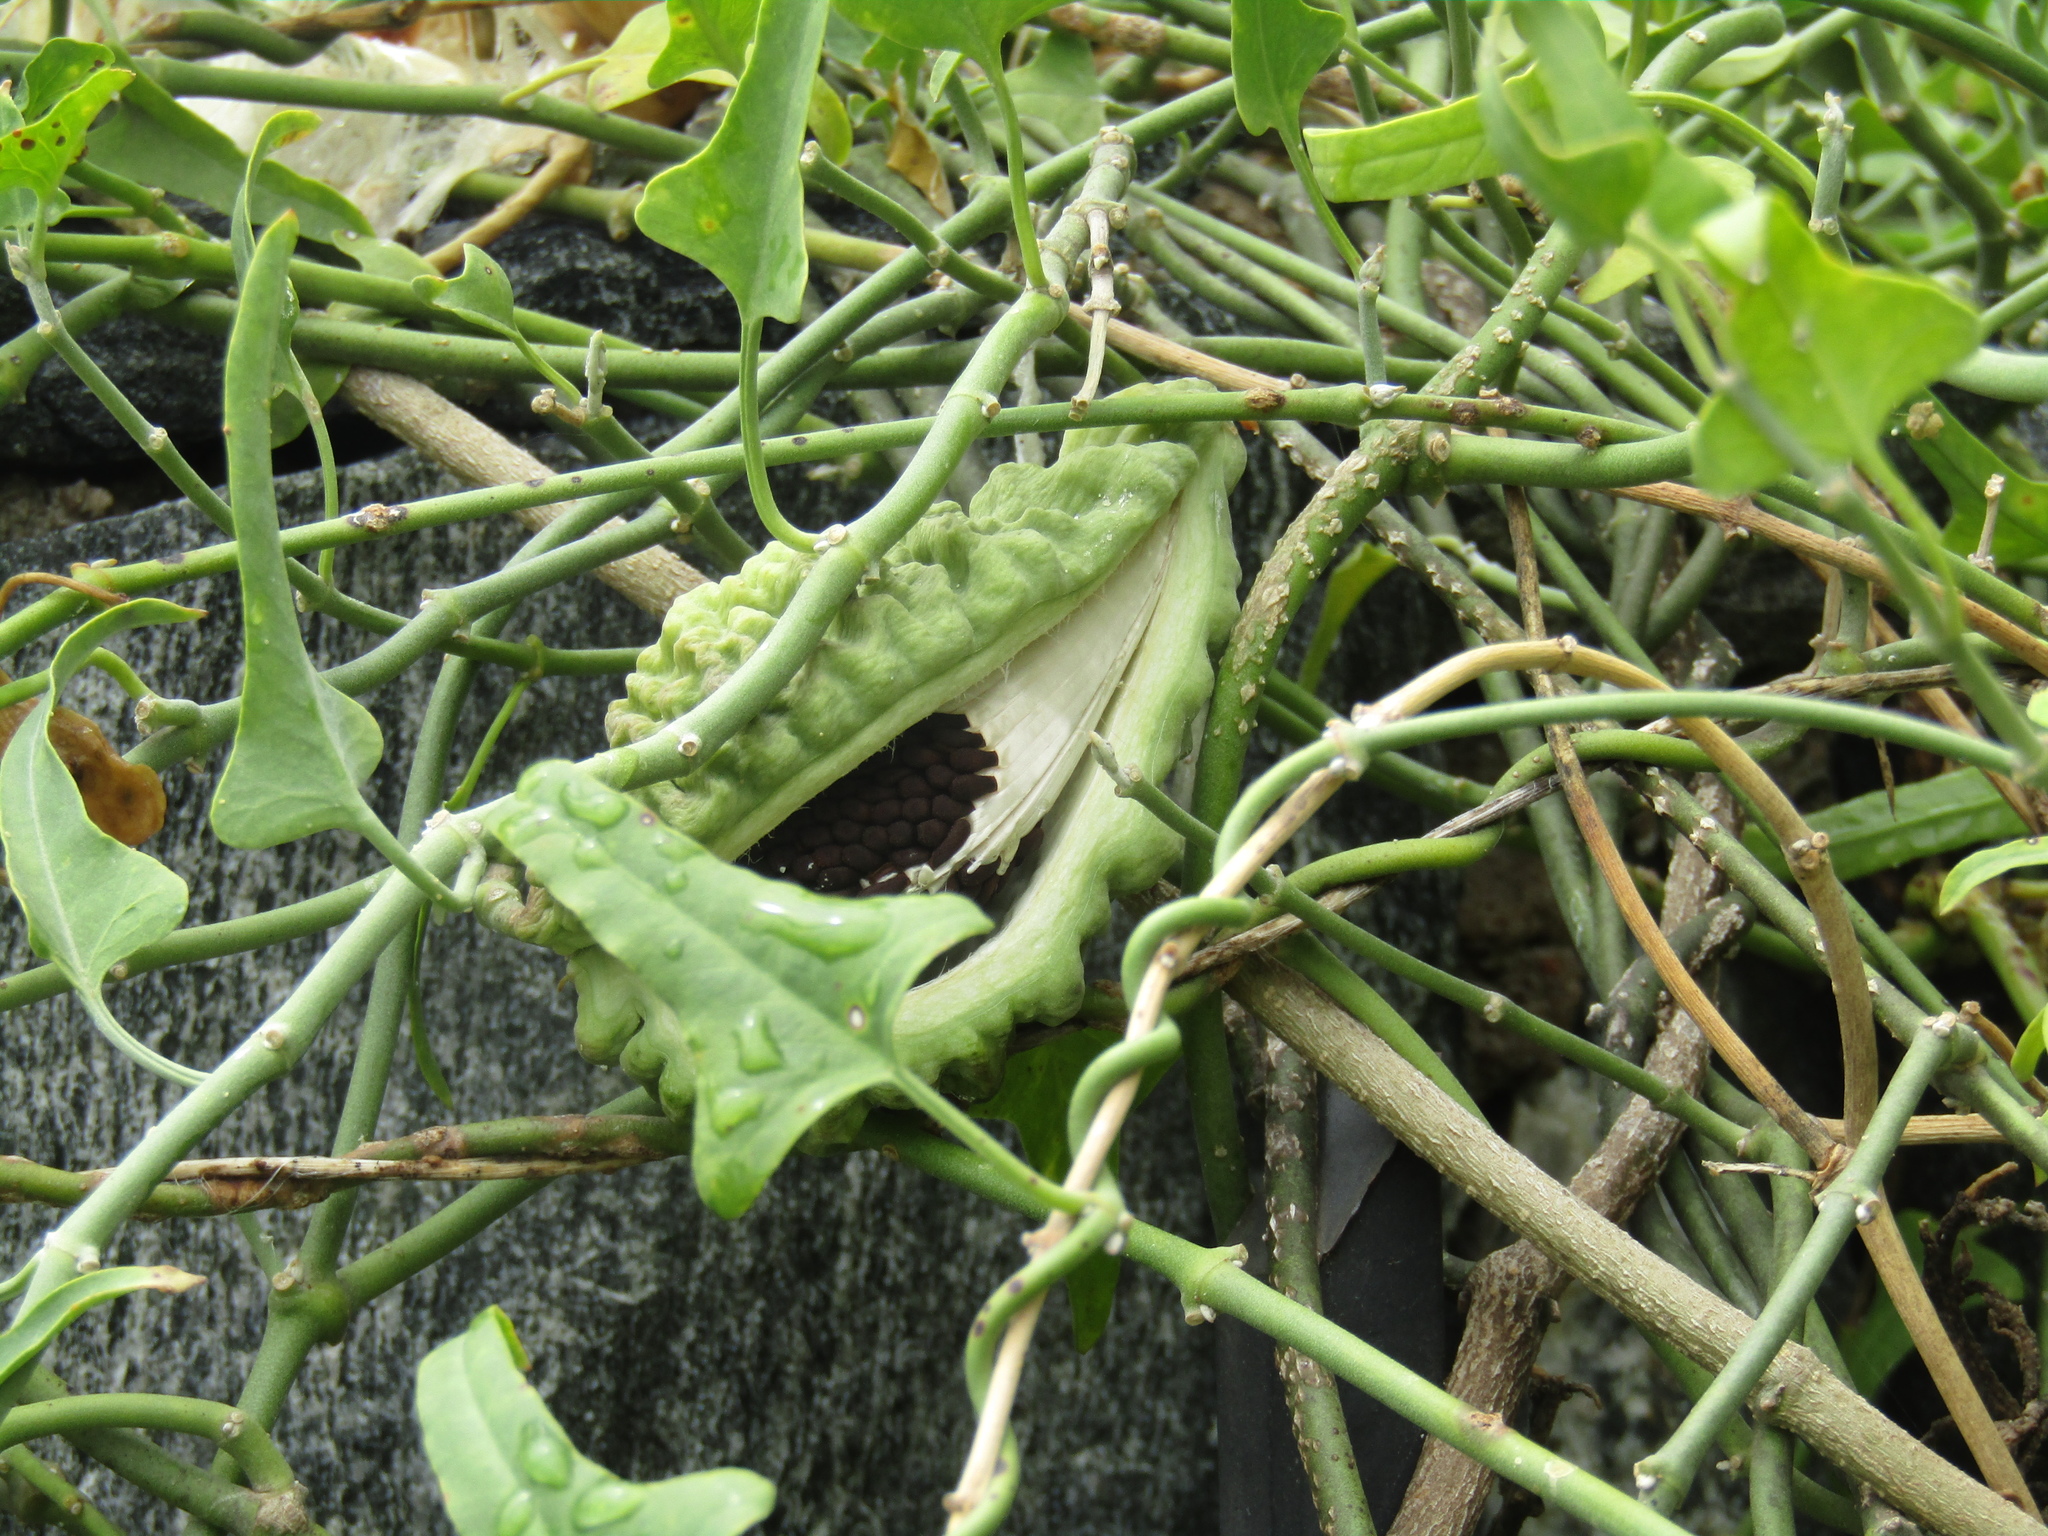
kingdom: Plantae
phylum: Tracheophyta
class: Magnoliopsida
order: Gentianales
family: Apocynaceae
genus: Araujia
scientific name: Araujia brachystephana
